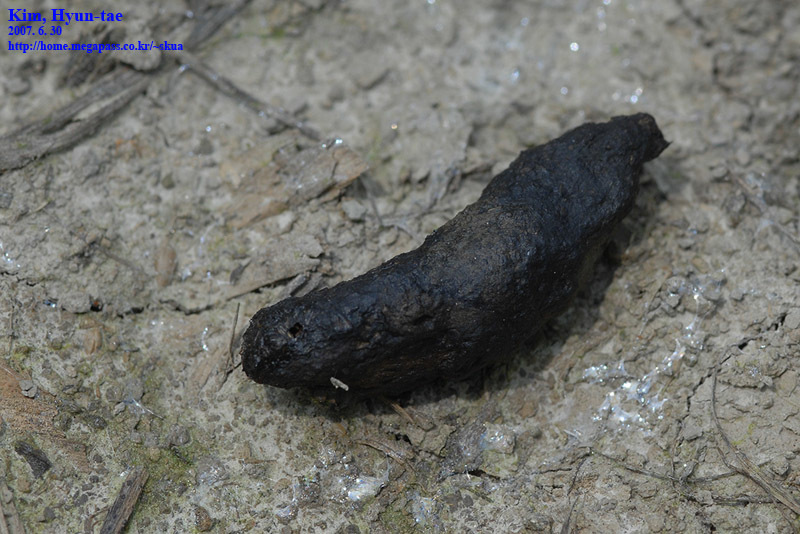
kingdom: Animalia
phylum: Chordata
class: Aves
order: Galliformes
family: Phasianidae
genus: Phasianus
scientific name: Phasianus colchicus
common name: Common pheasant
